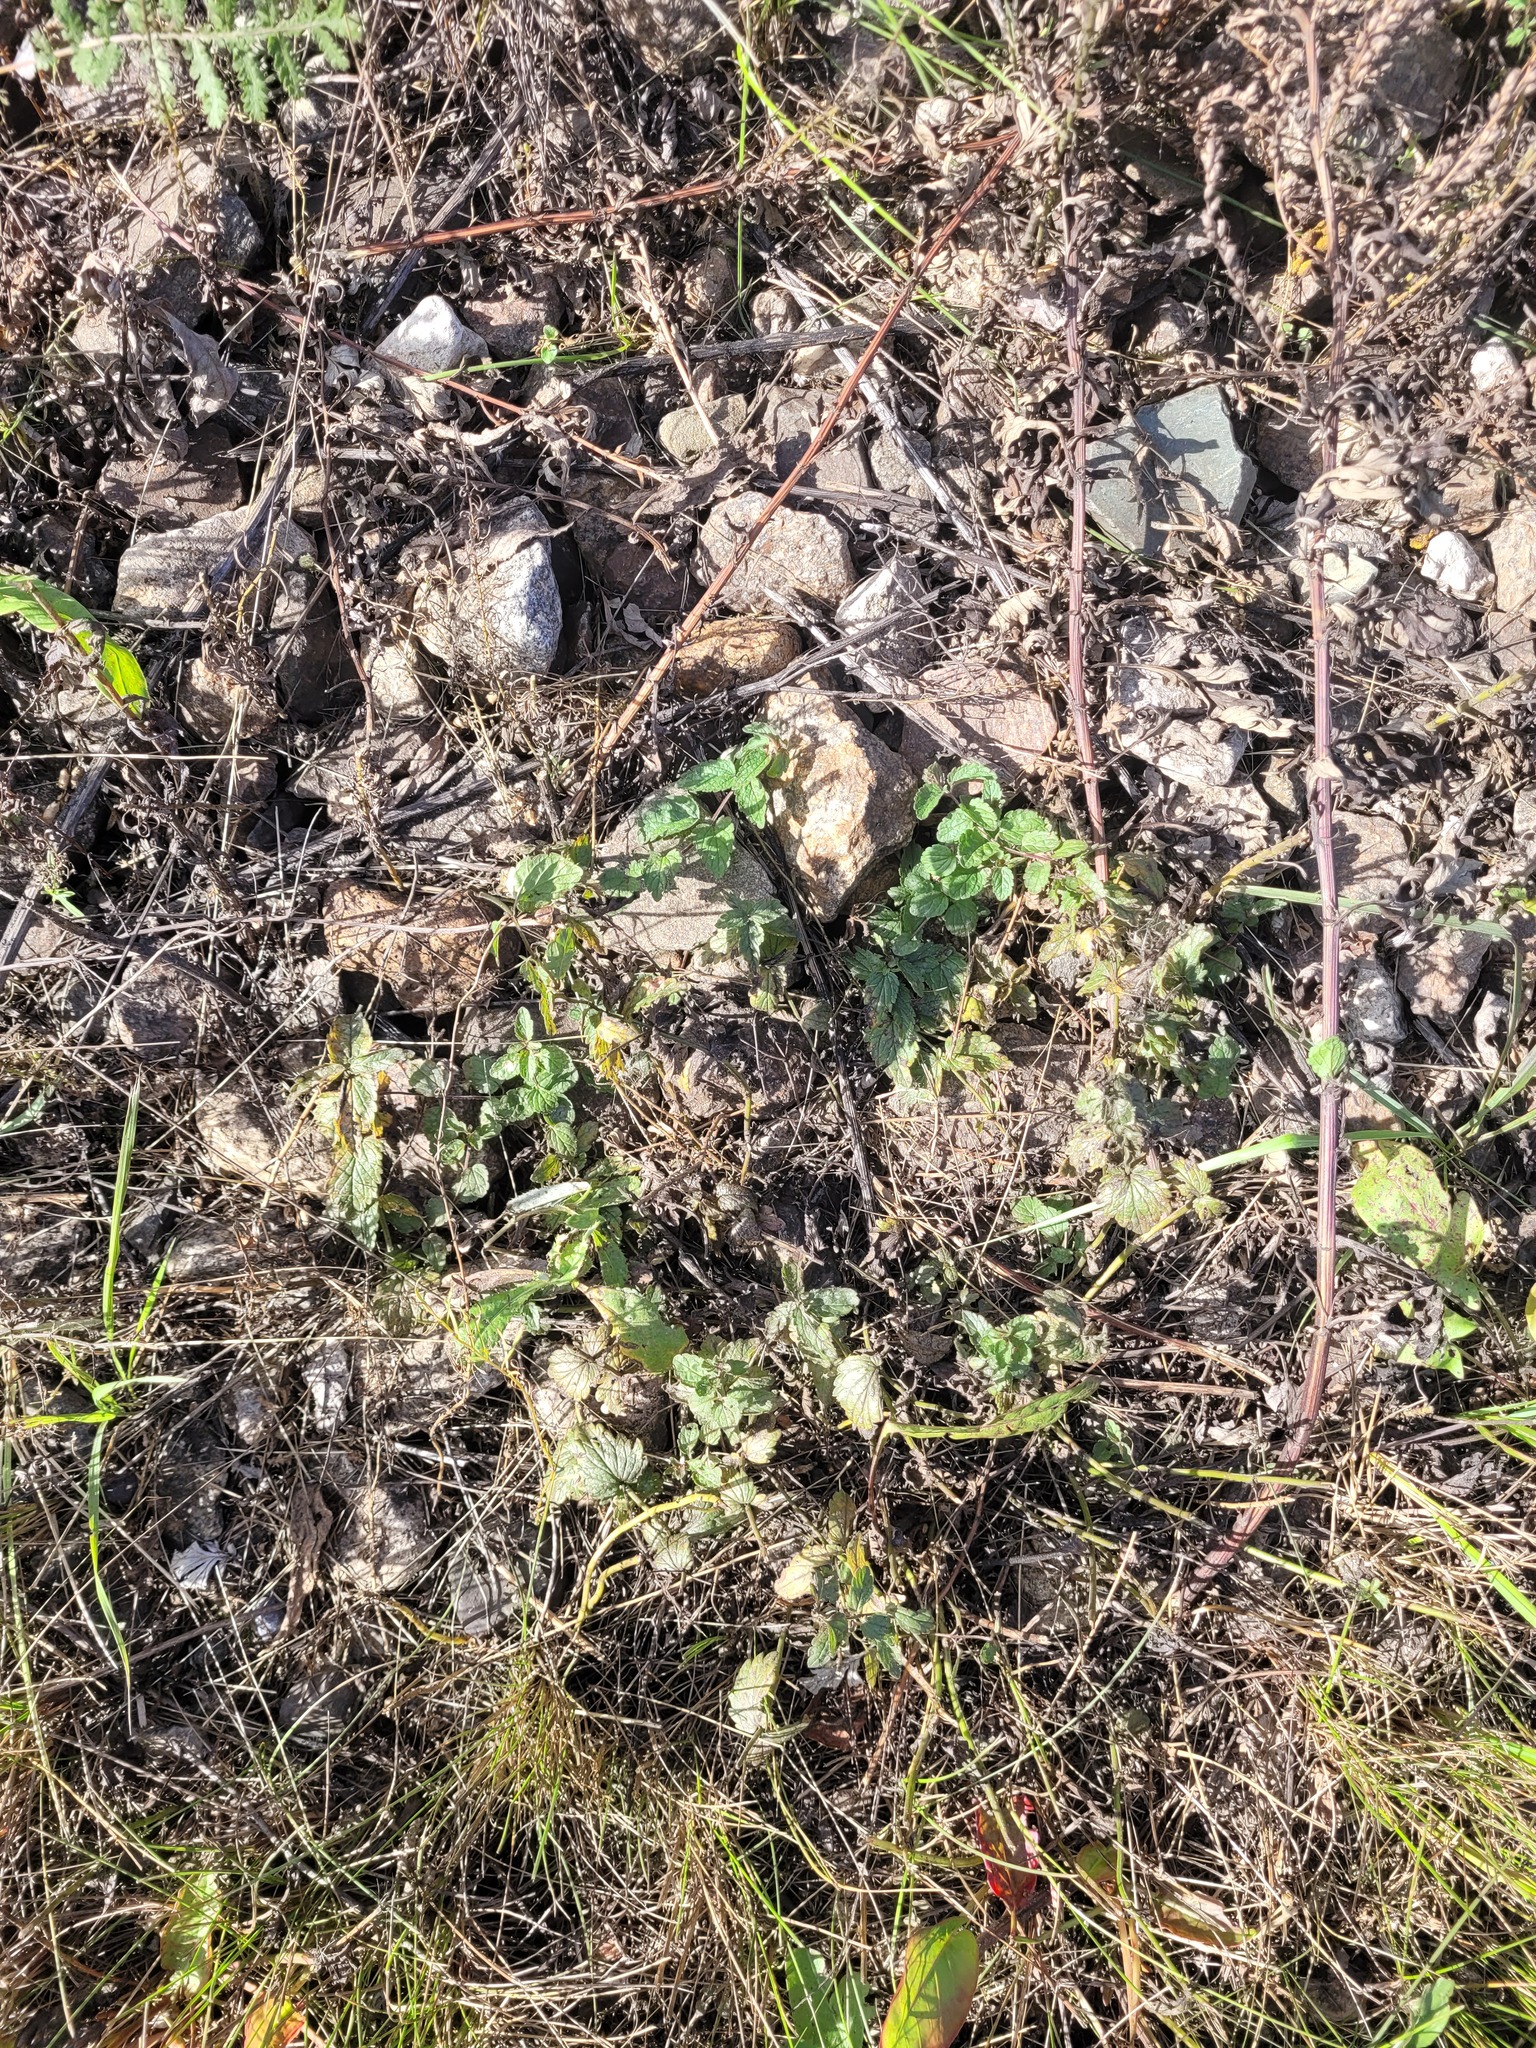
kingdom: Plantae
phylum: Tracheophyta
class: Magnoliopsida
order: Lamiales
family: Plantaginaceae
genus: Veronica
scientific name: Veronica chamaedrys
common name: Germander speedwell
